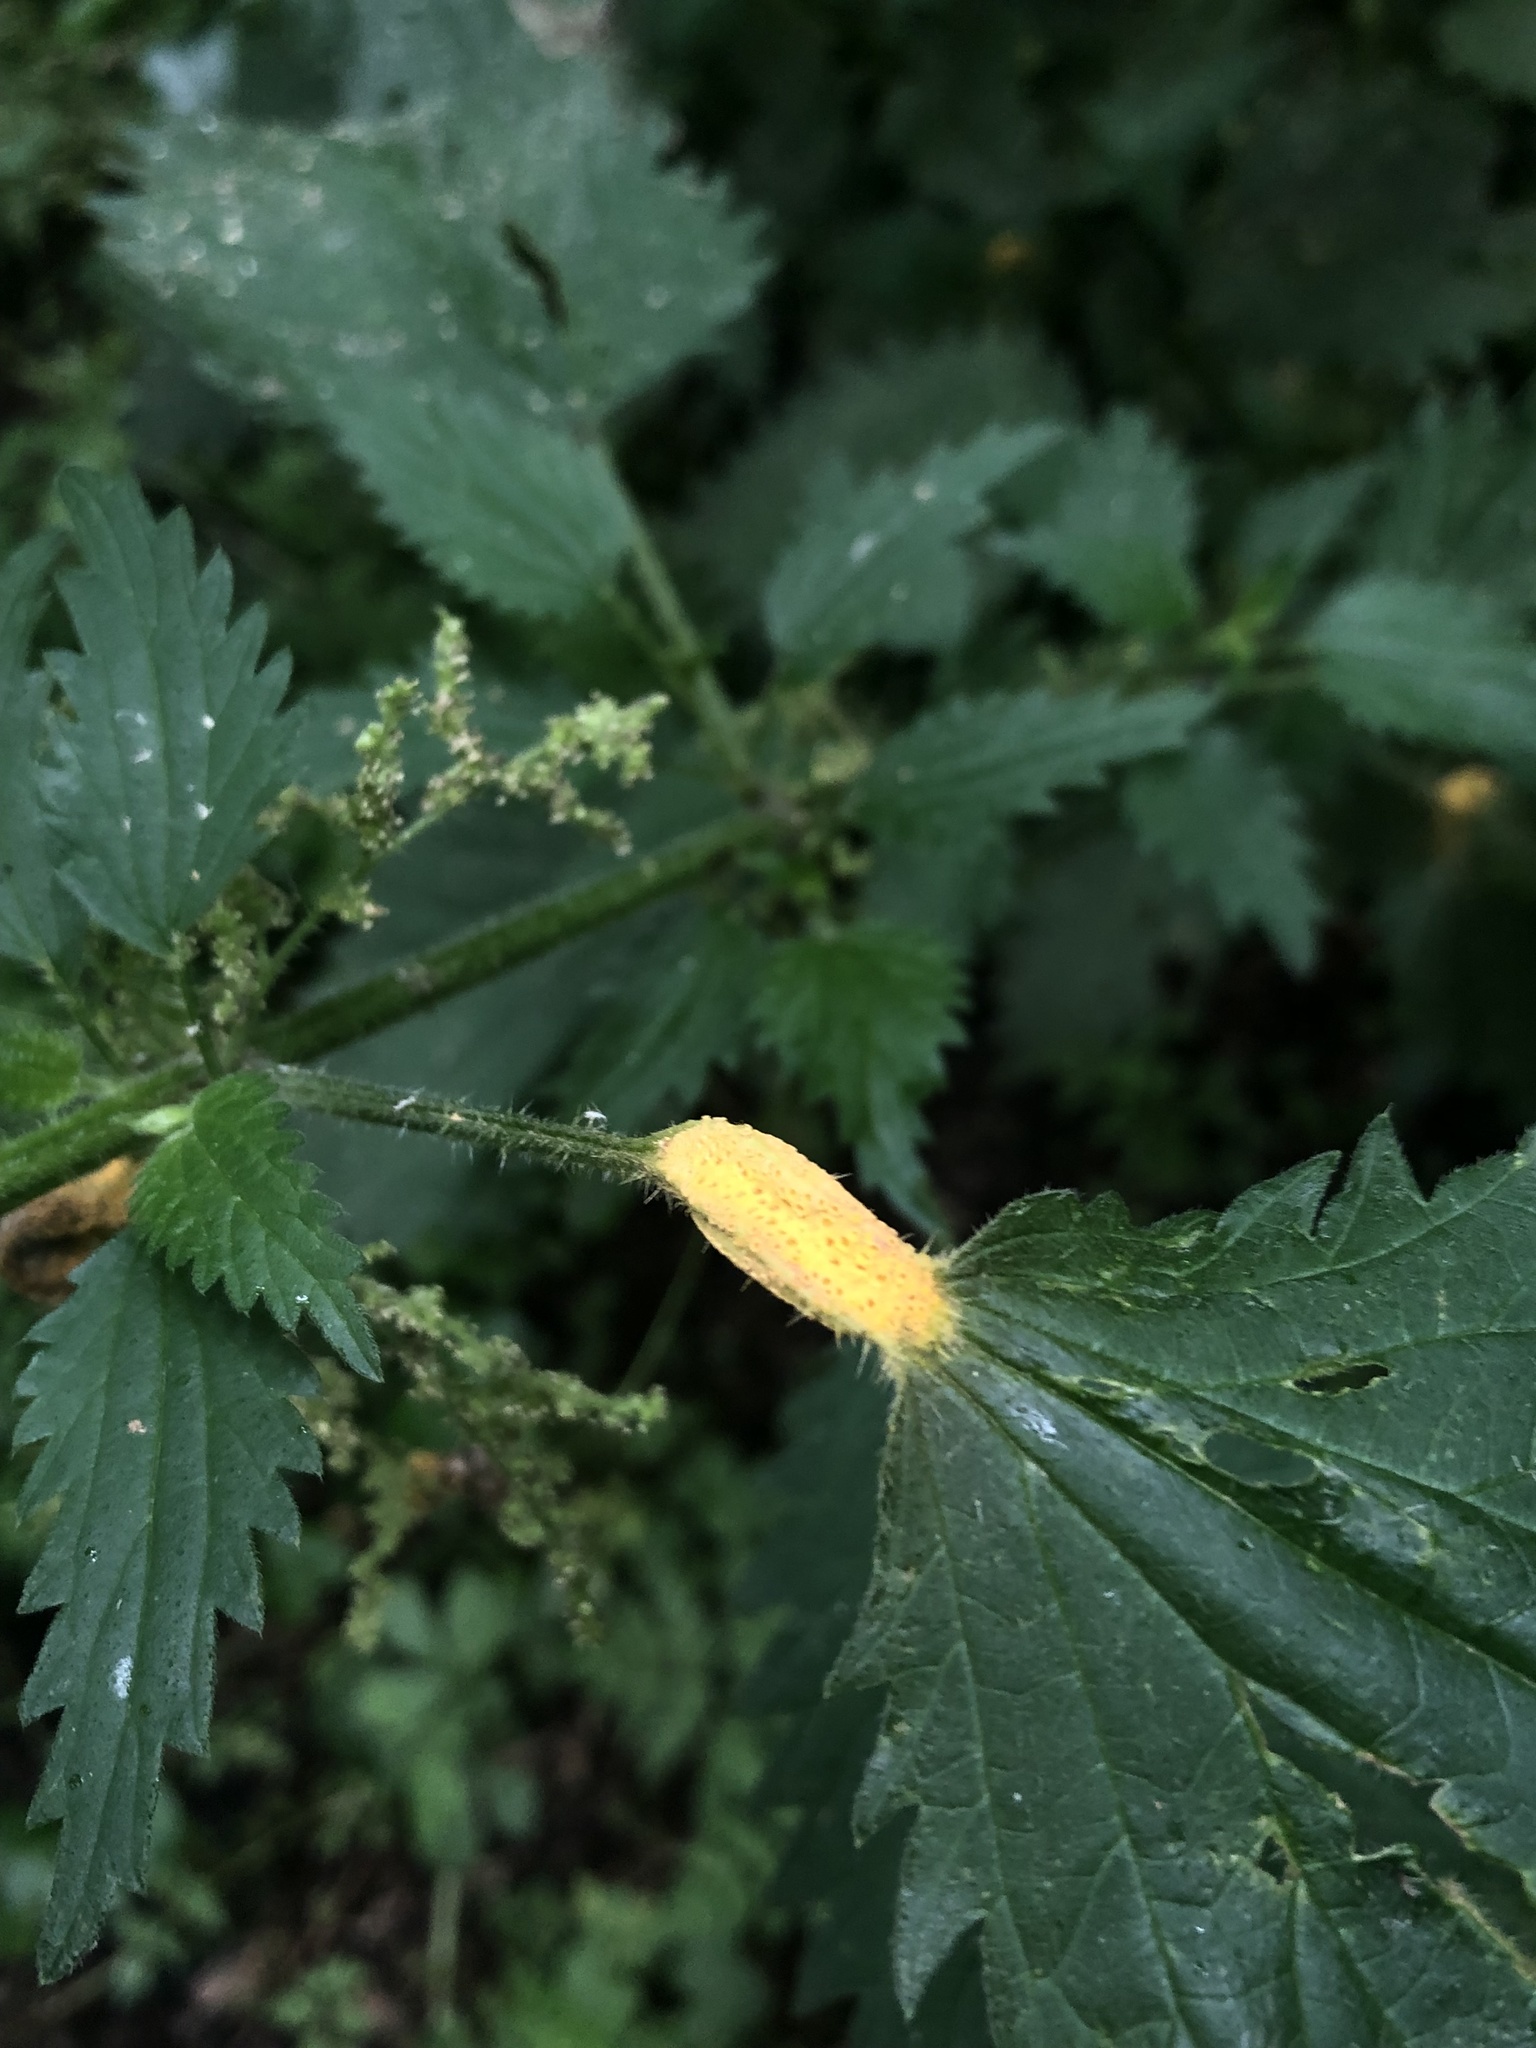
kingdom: Fungi
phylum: Basidiomycota
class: Pucciniomycetes
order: Pucciniales
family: Pucciniaceae
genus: Puccinia
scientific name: Puccinia urticata
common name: Nettle clustercup rust fungus
